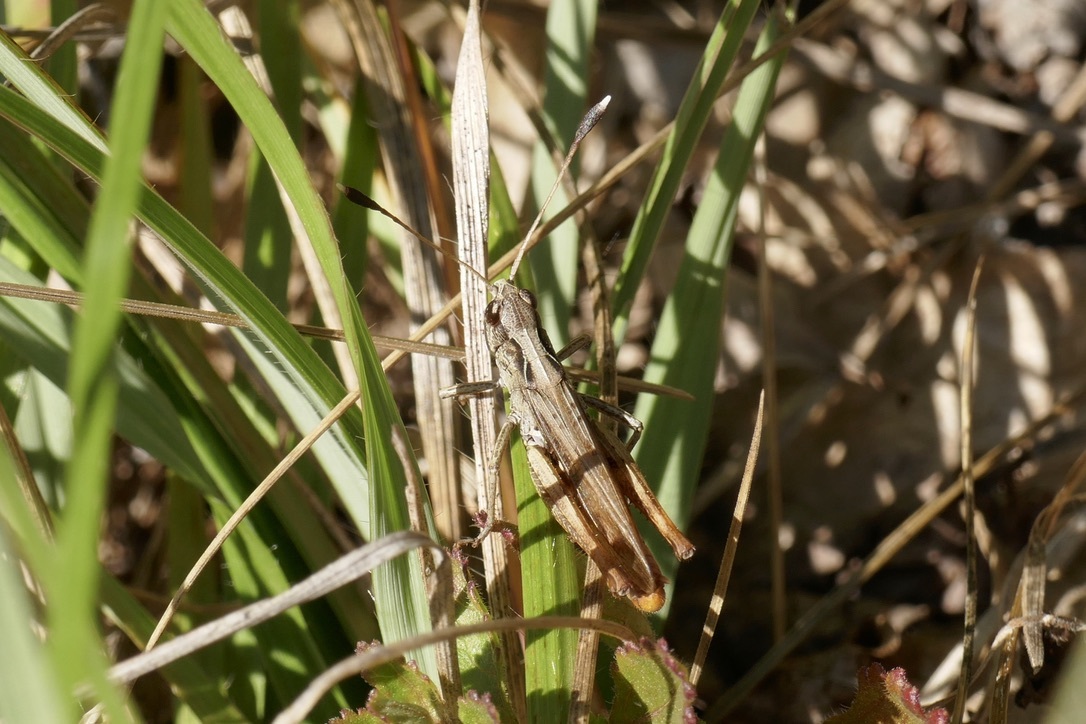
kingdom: Animalia
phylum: Arthropoda
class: Insecta
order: Orthoptera
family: Acrididae
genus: Gomphocerippus
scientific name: Gomphocerippus rufus
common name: Rufous grasshopper
